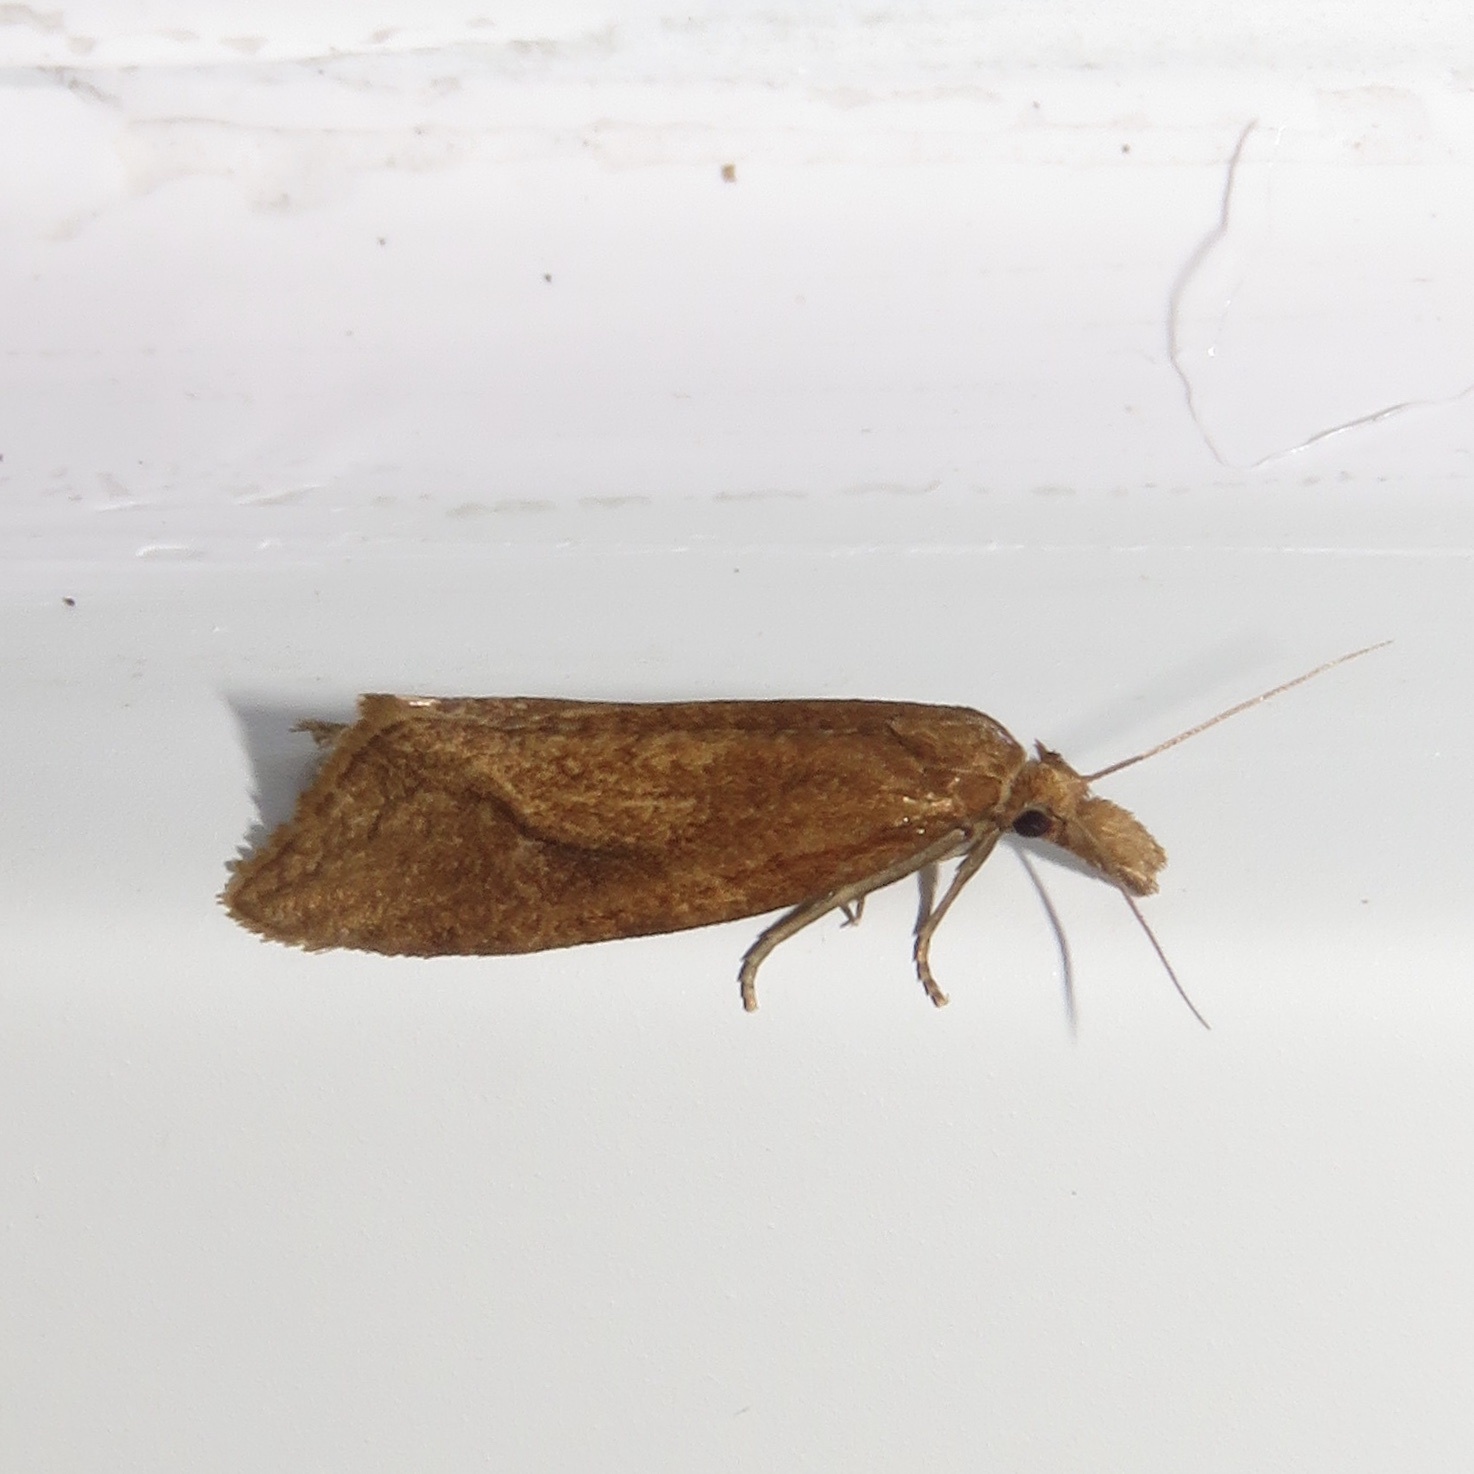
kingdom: Animalia
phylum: Arthropoda
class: Insecta
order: Lepidoptera
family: Tortricidae
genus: Aethes
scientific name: Aethes biscana
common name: Reddish aethes
